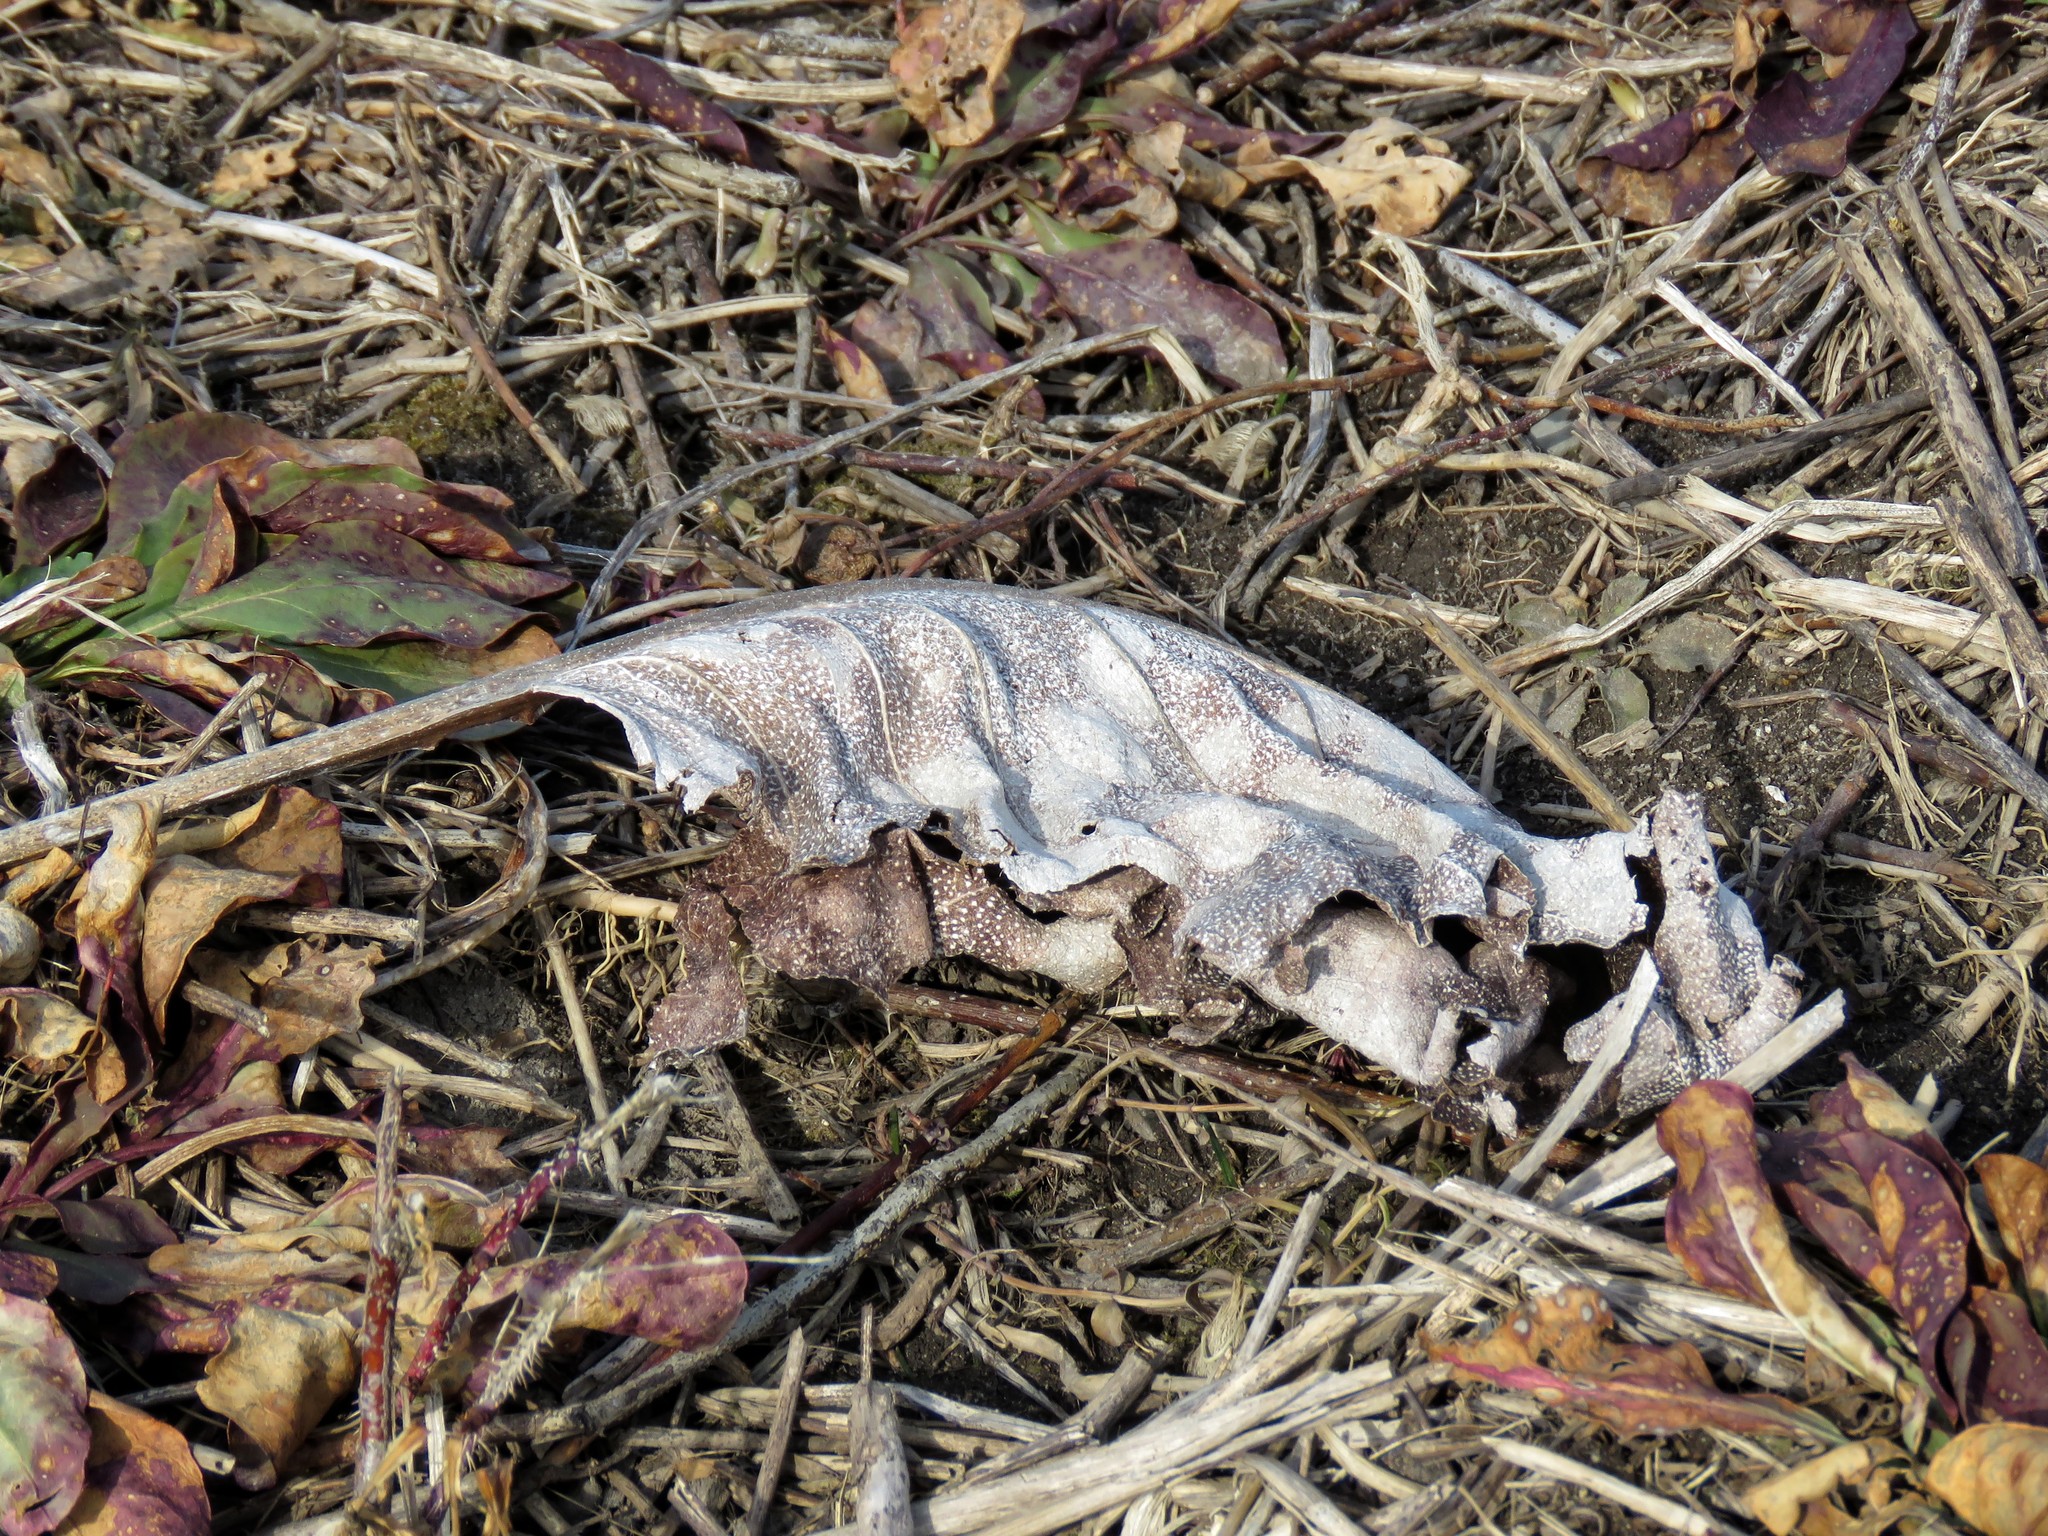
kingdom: Plantae
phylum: Tracheophyta
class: Magnoliopsida
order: Asterales
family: Asteraceae
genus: Silphium
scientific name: Silphium terebinthinaceum
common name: Basal-leaf rosinweed
